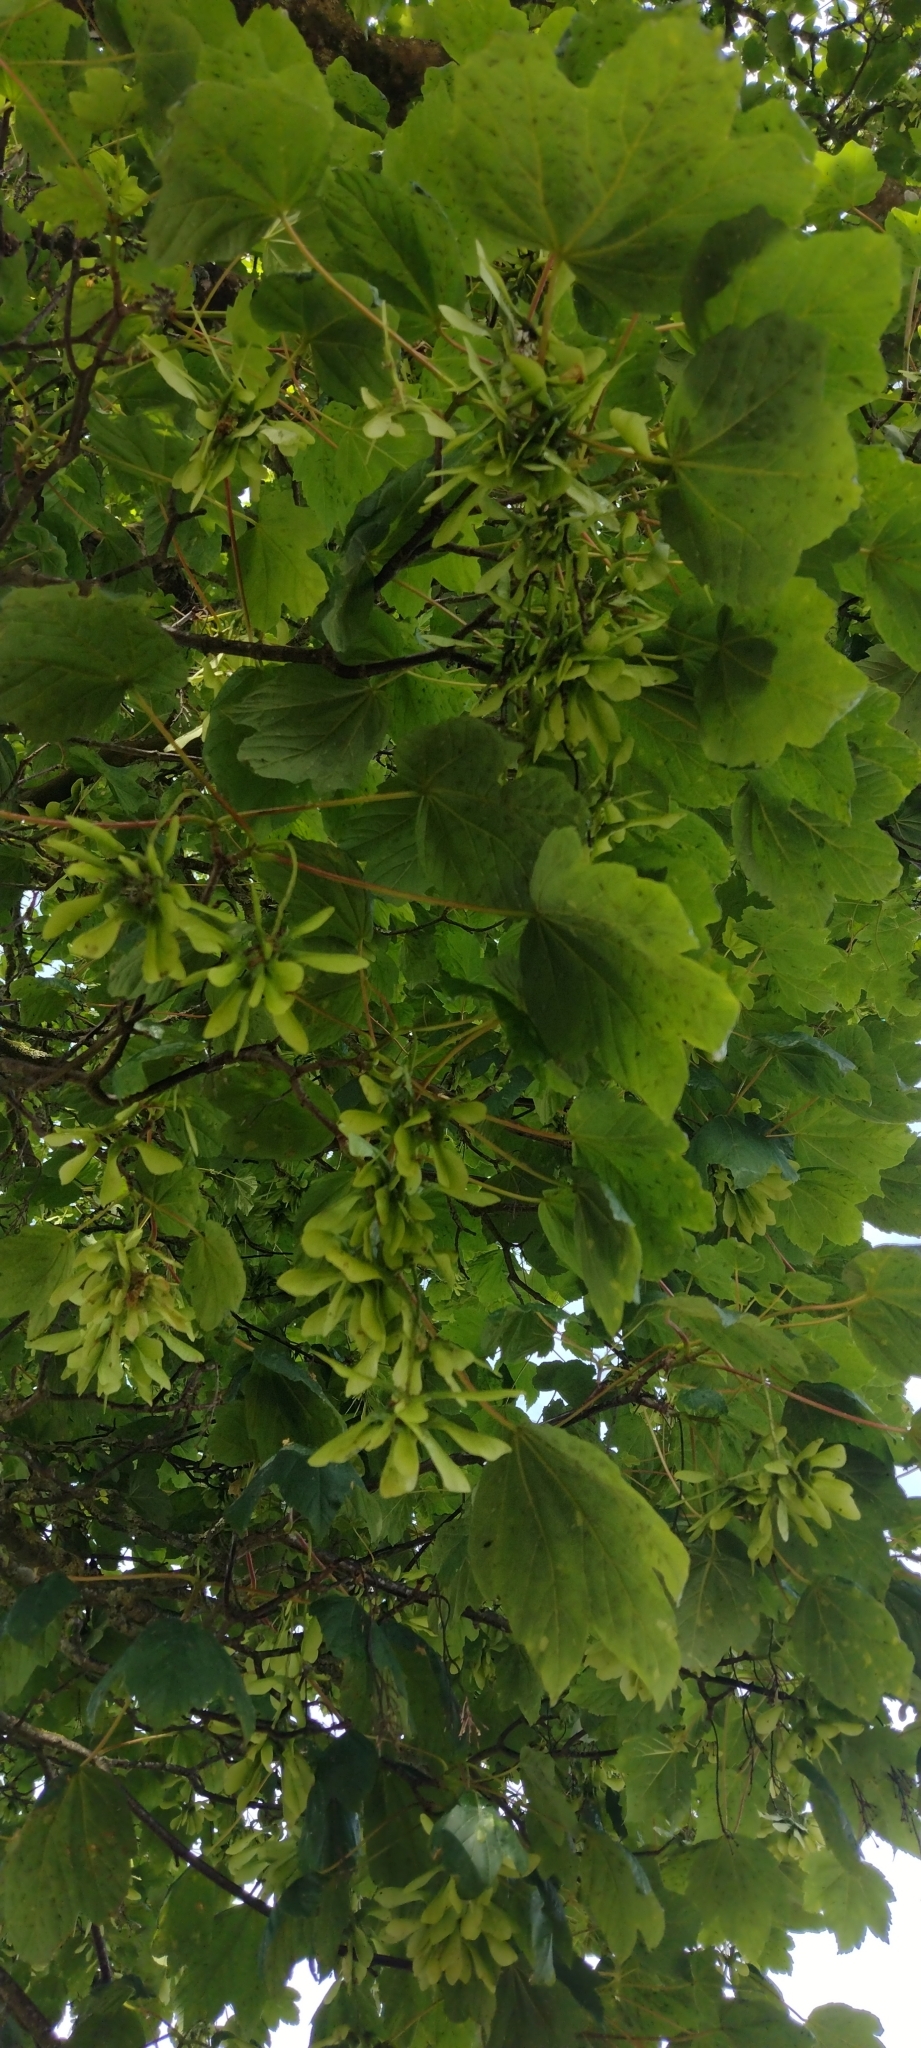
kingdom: Plantae
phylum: Tracheophyta
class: Magnoliopsida
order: Sapindales
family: Sapindaceae
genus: Acer
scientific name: Acer pseudoplatanus
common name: Sycamore
